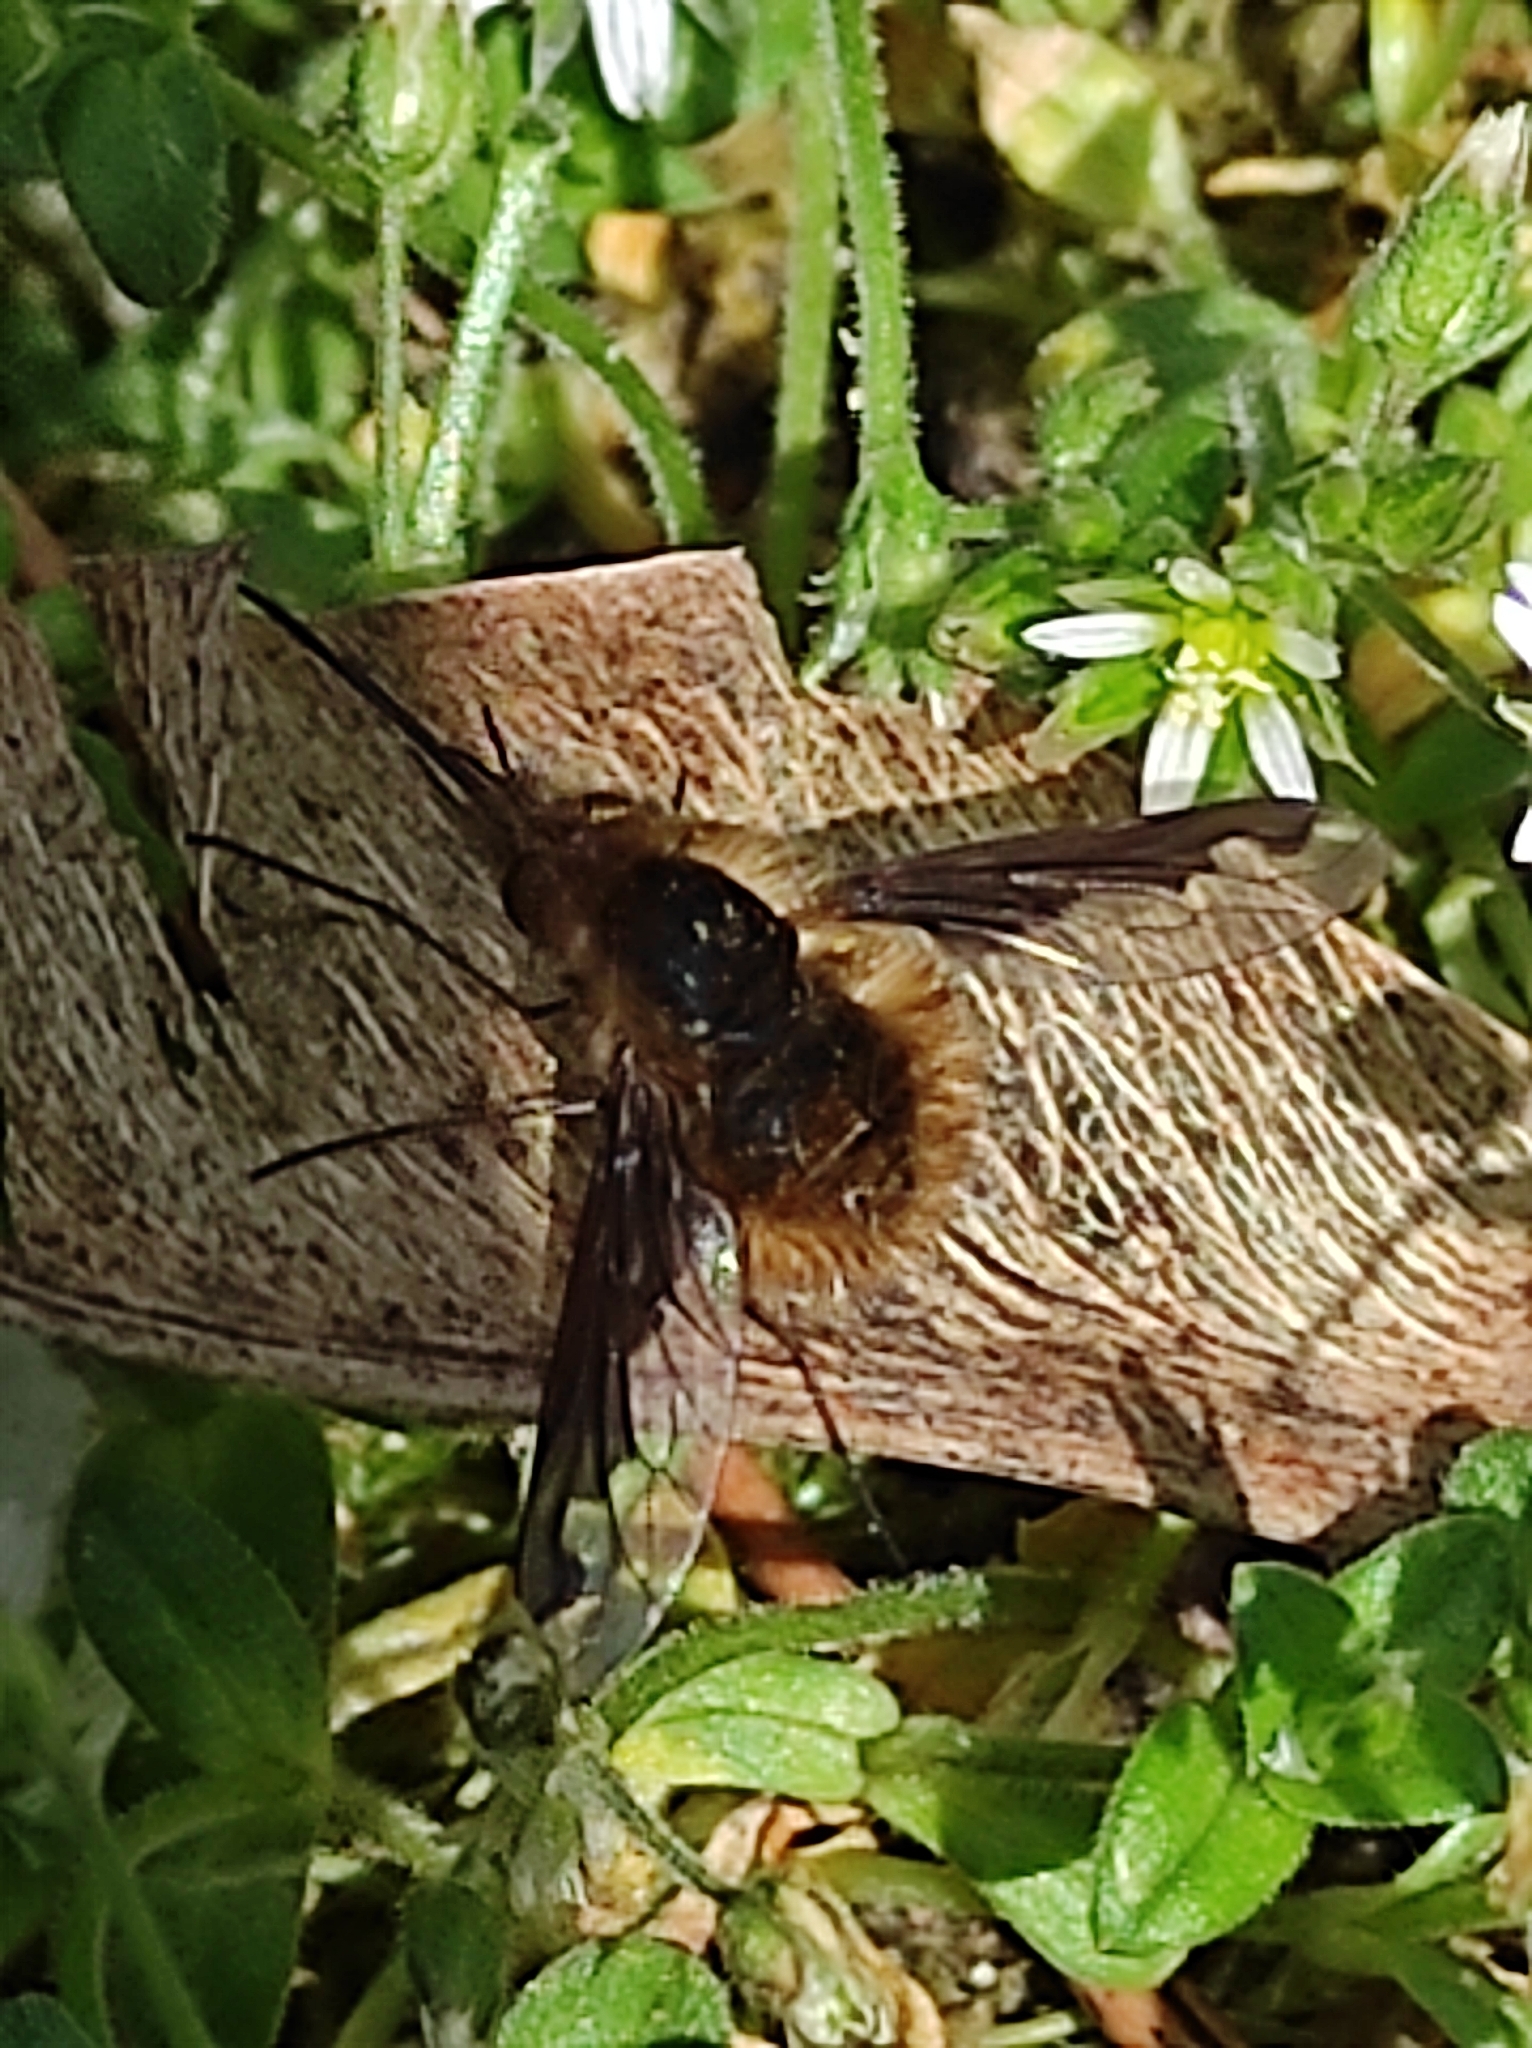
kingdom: Animalia
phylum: Arthropoda
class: Insecta
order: Diptera
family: Bombyliidae
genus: Bombylius
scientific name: Bombylius major
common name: Bee fly
